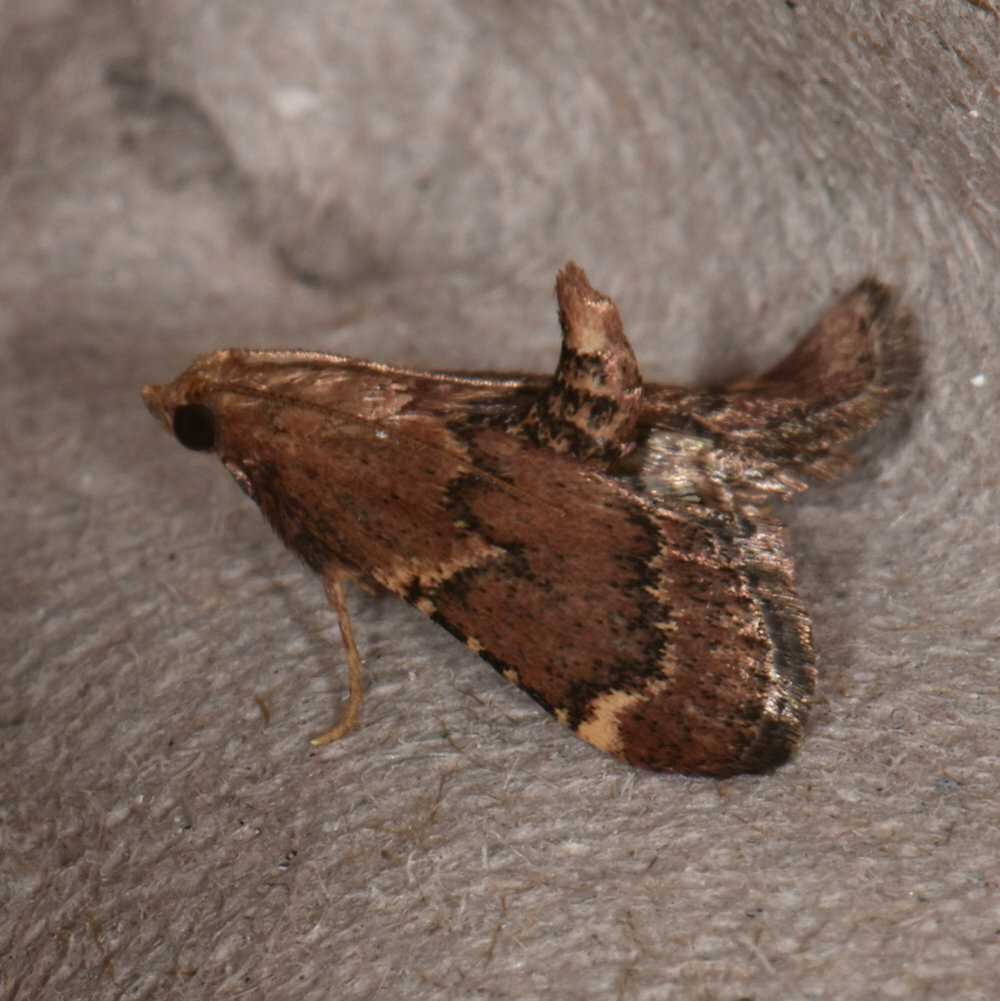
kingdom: Animalia
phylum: Arthropoda
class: Insecta
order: Lepidoptera
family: Pyralidae
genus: Hypsopygia
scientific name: Hypsopygia intermedialis
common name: Red-shawled moth
